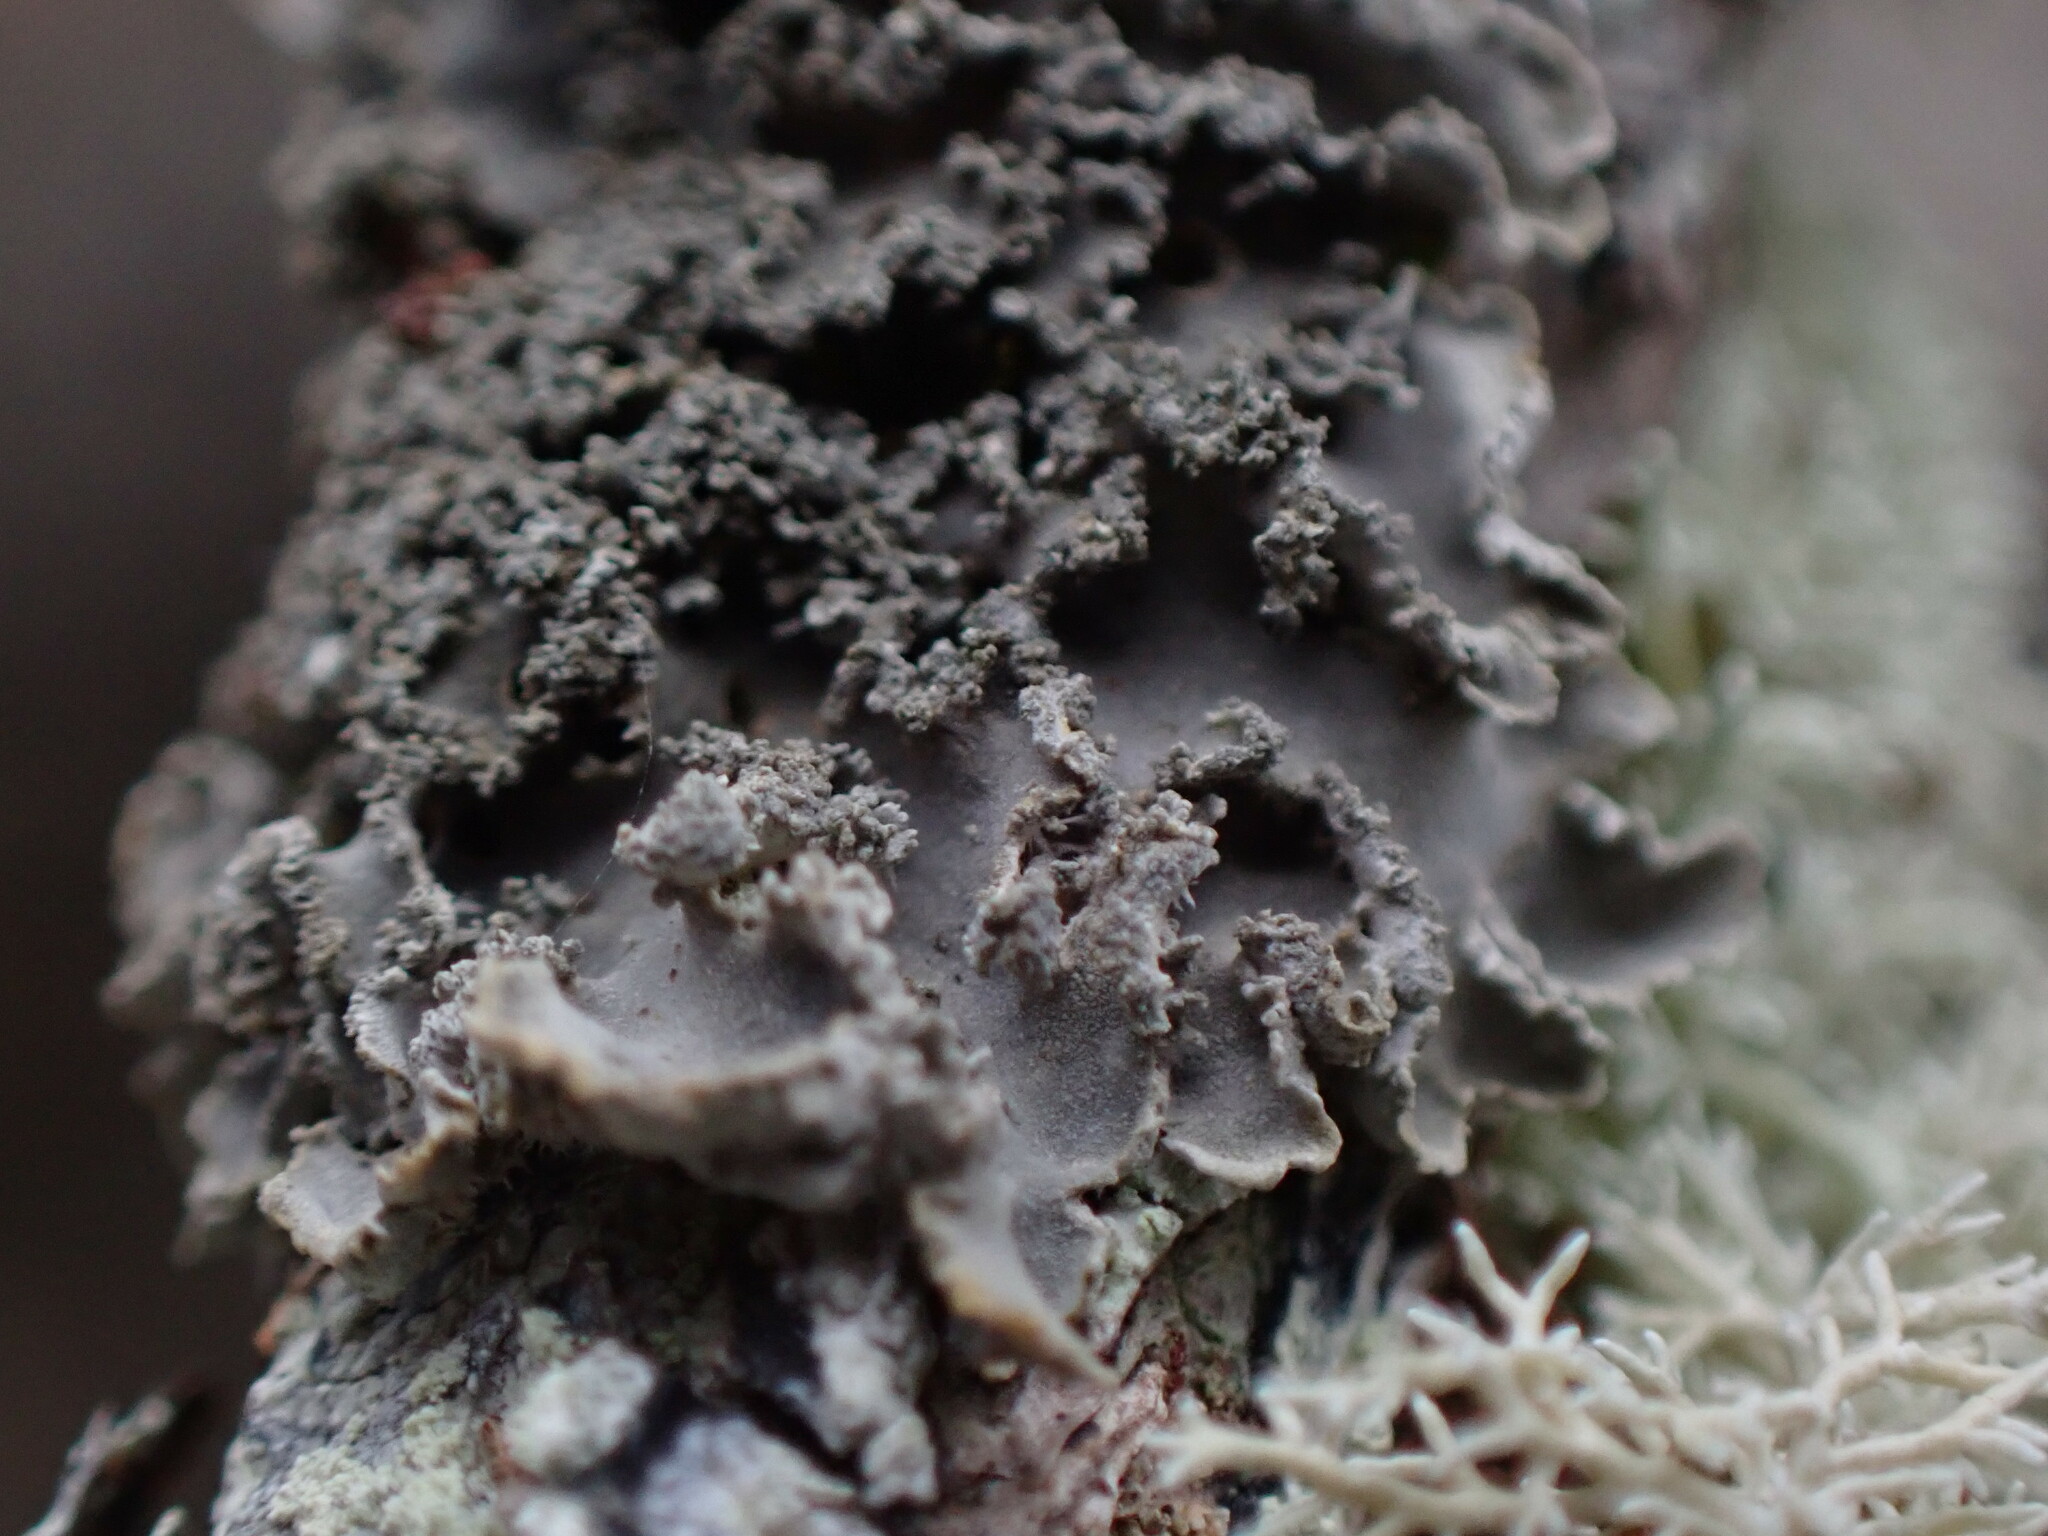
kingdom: Fungi
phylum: Ascomycota
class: Lecanoromycetes
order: Peltigerales
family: Pannariaceae
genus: Leioderma
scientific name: Leioderma sorediatum
